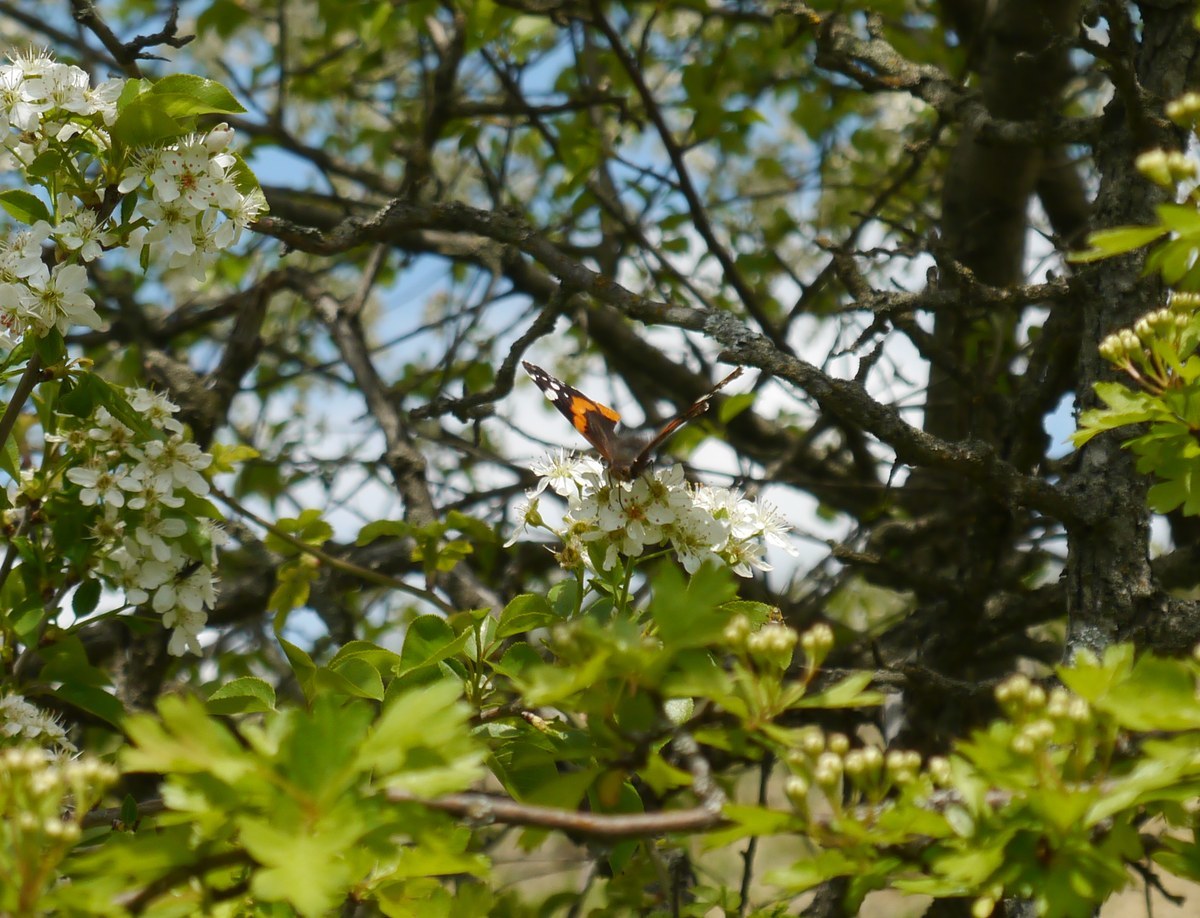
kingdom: Animalia
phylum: Arthropoda
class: Insecta
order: Lepidoptera
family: Nymphalidae
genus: Vanessa
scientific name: Vanessa atalanta
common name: Red admiral
